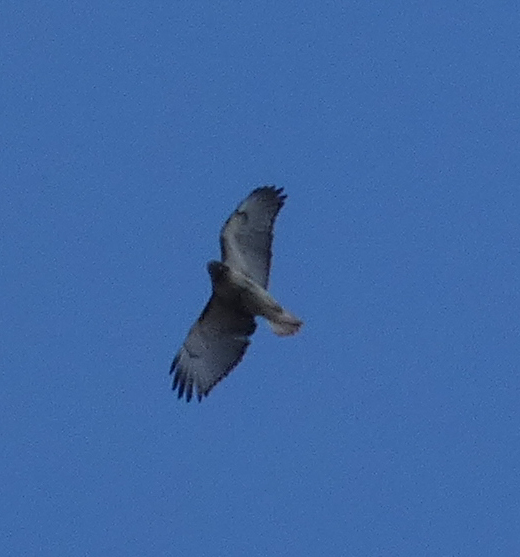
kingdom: Animalia
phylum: Chordata
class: Aves
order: Accipitriformes
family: Accipitridae
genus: Buteo
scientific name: Buteo jamaicensis
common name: Red-tailed hawk
